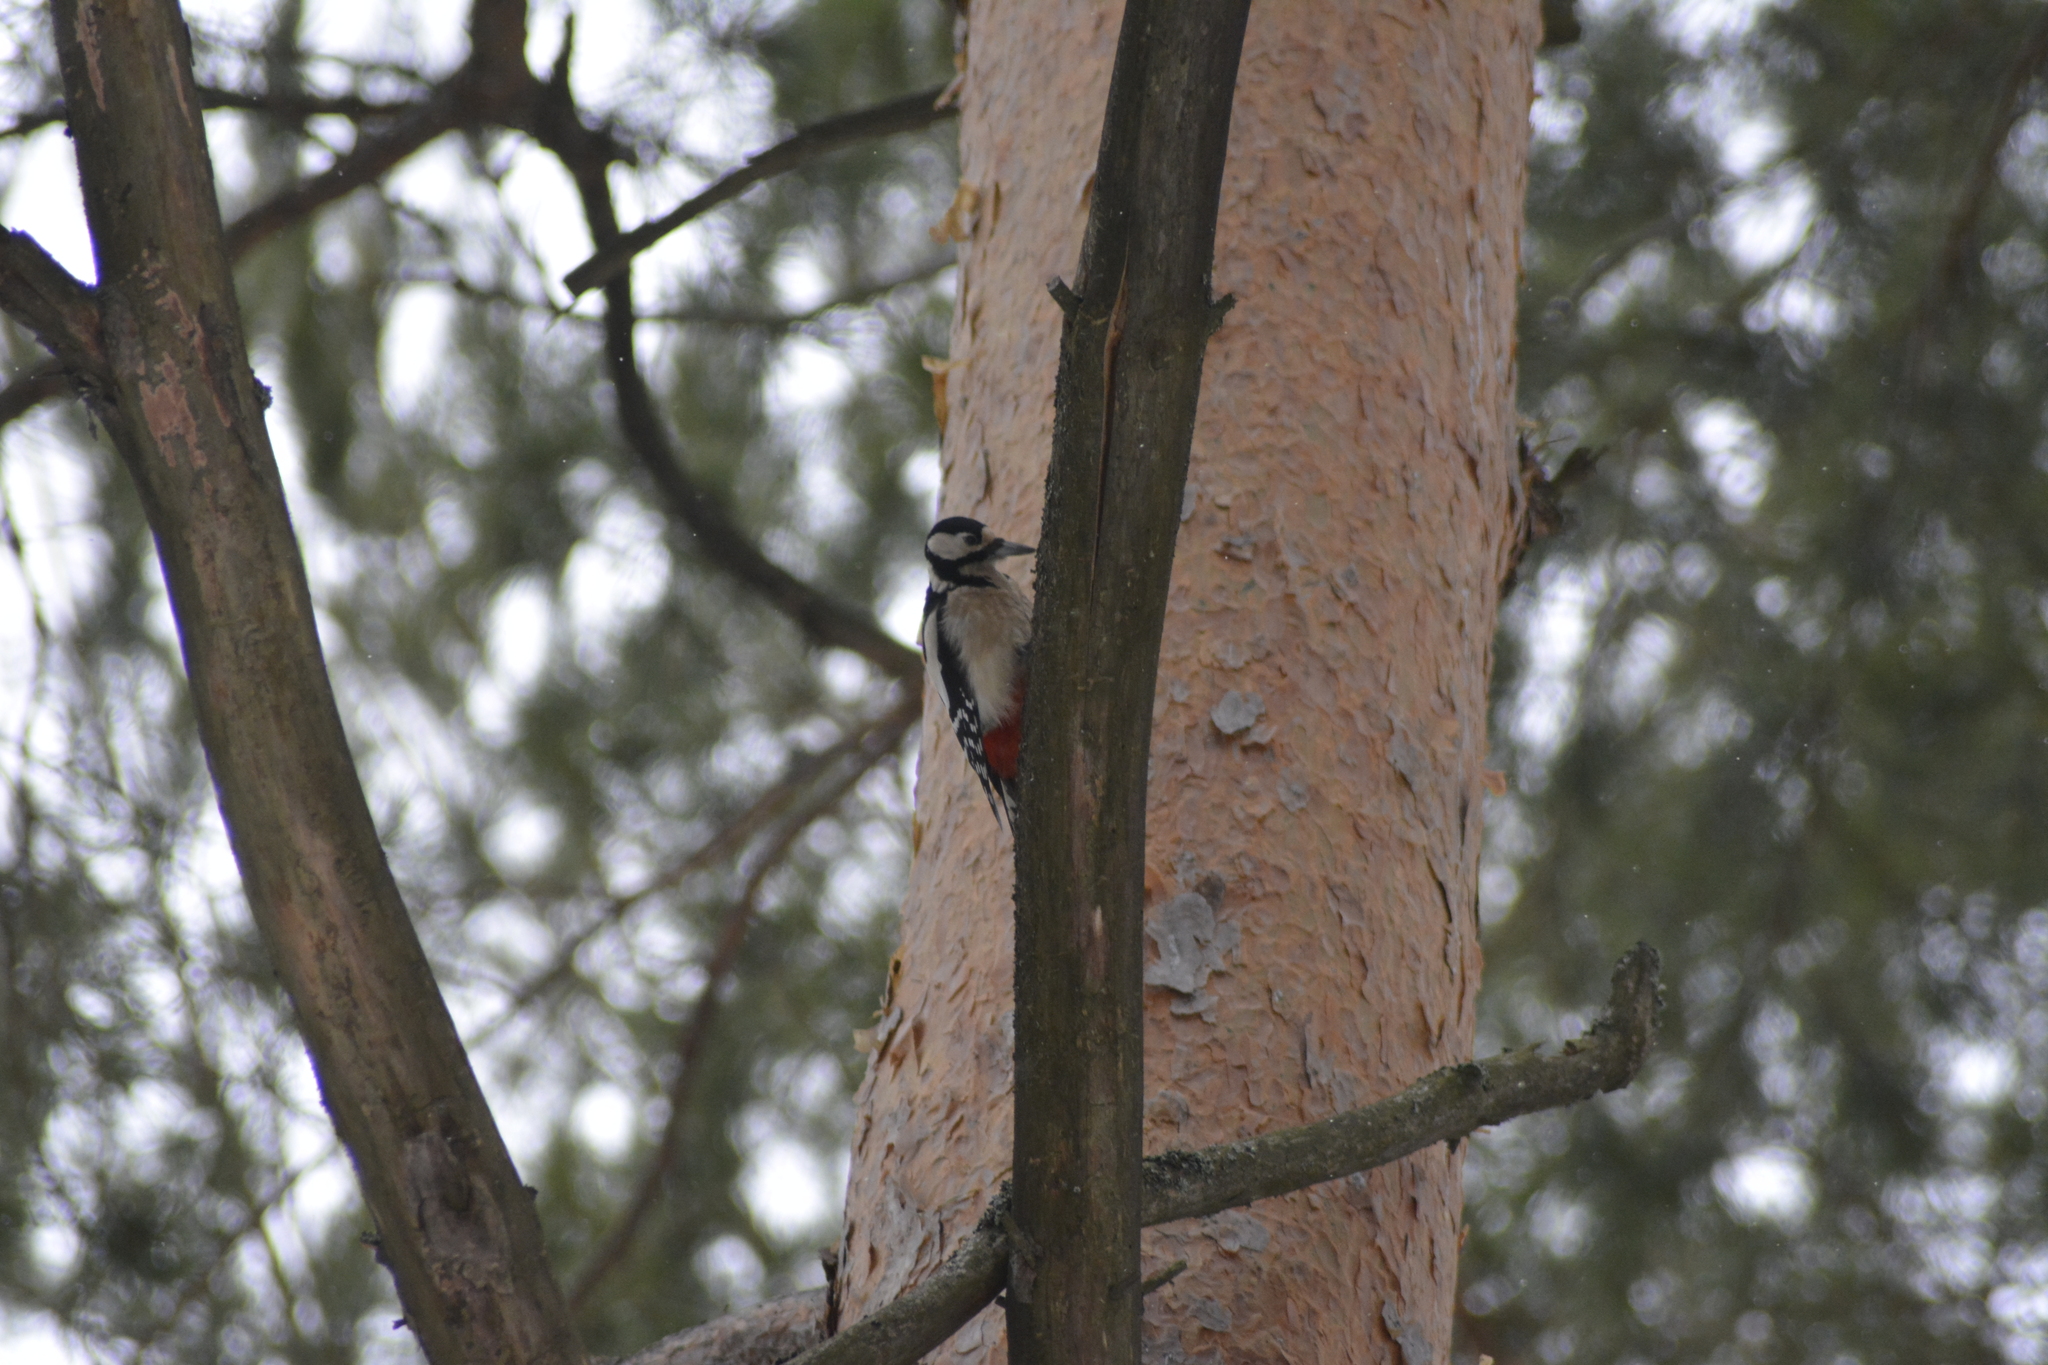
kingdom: Animalia
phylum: Chordata
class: Aves
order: Piciformes
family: Picidae
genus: Dendrocopos
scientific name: Dendrocopos major
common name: Great spotted woodpecker
